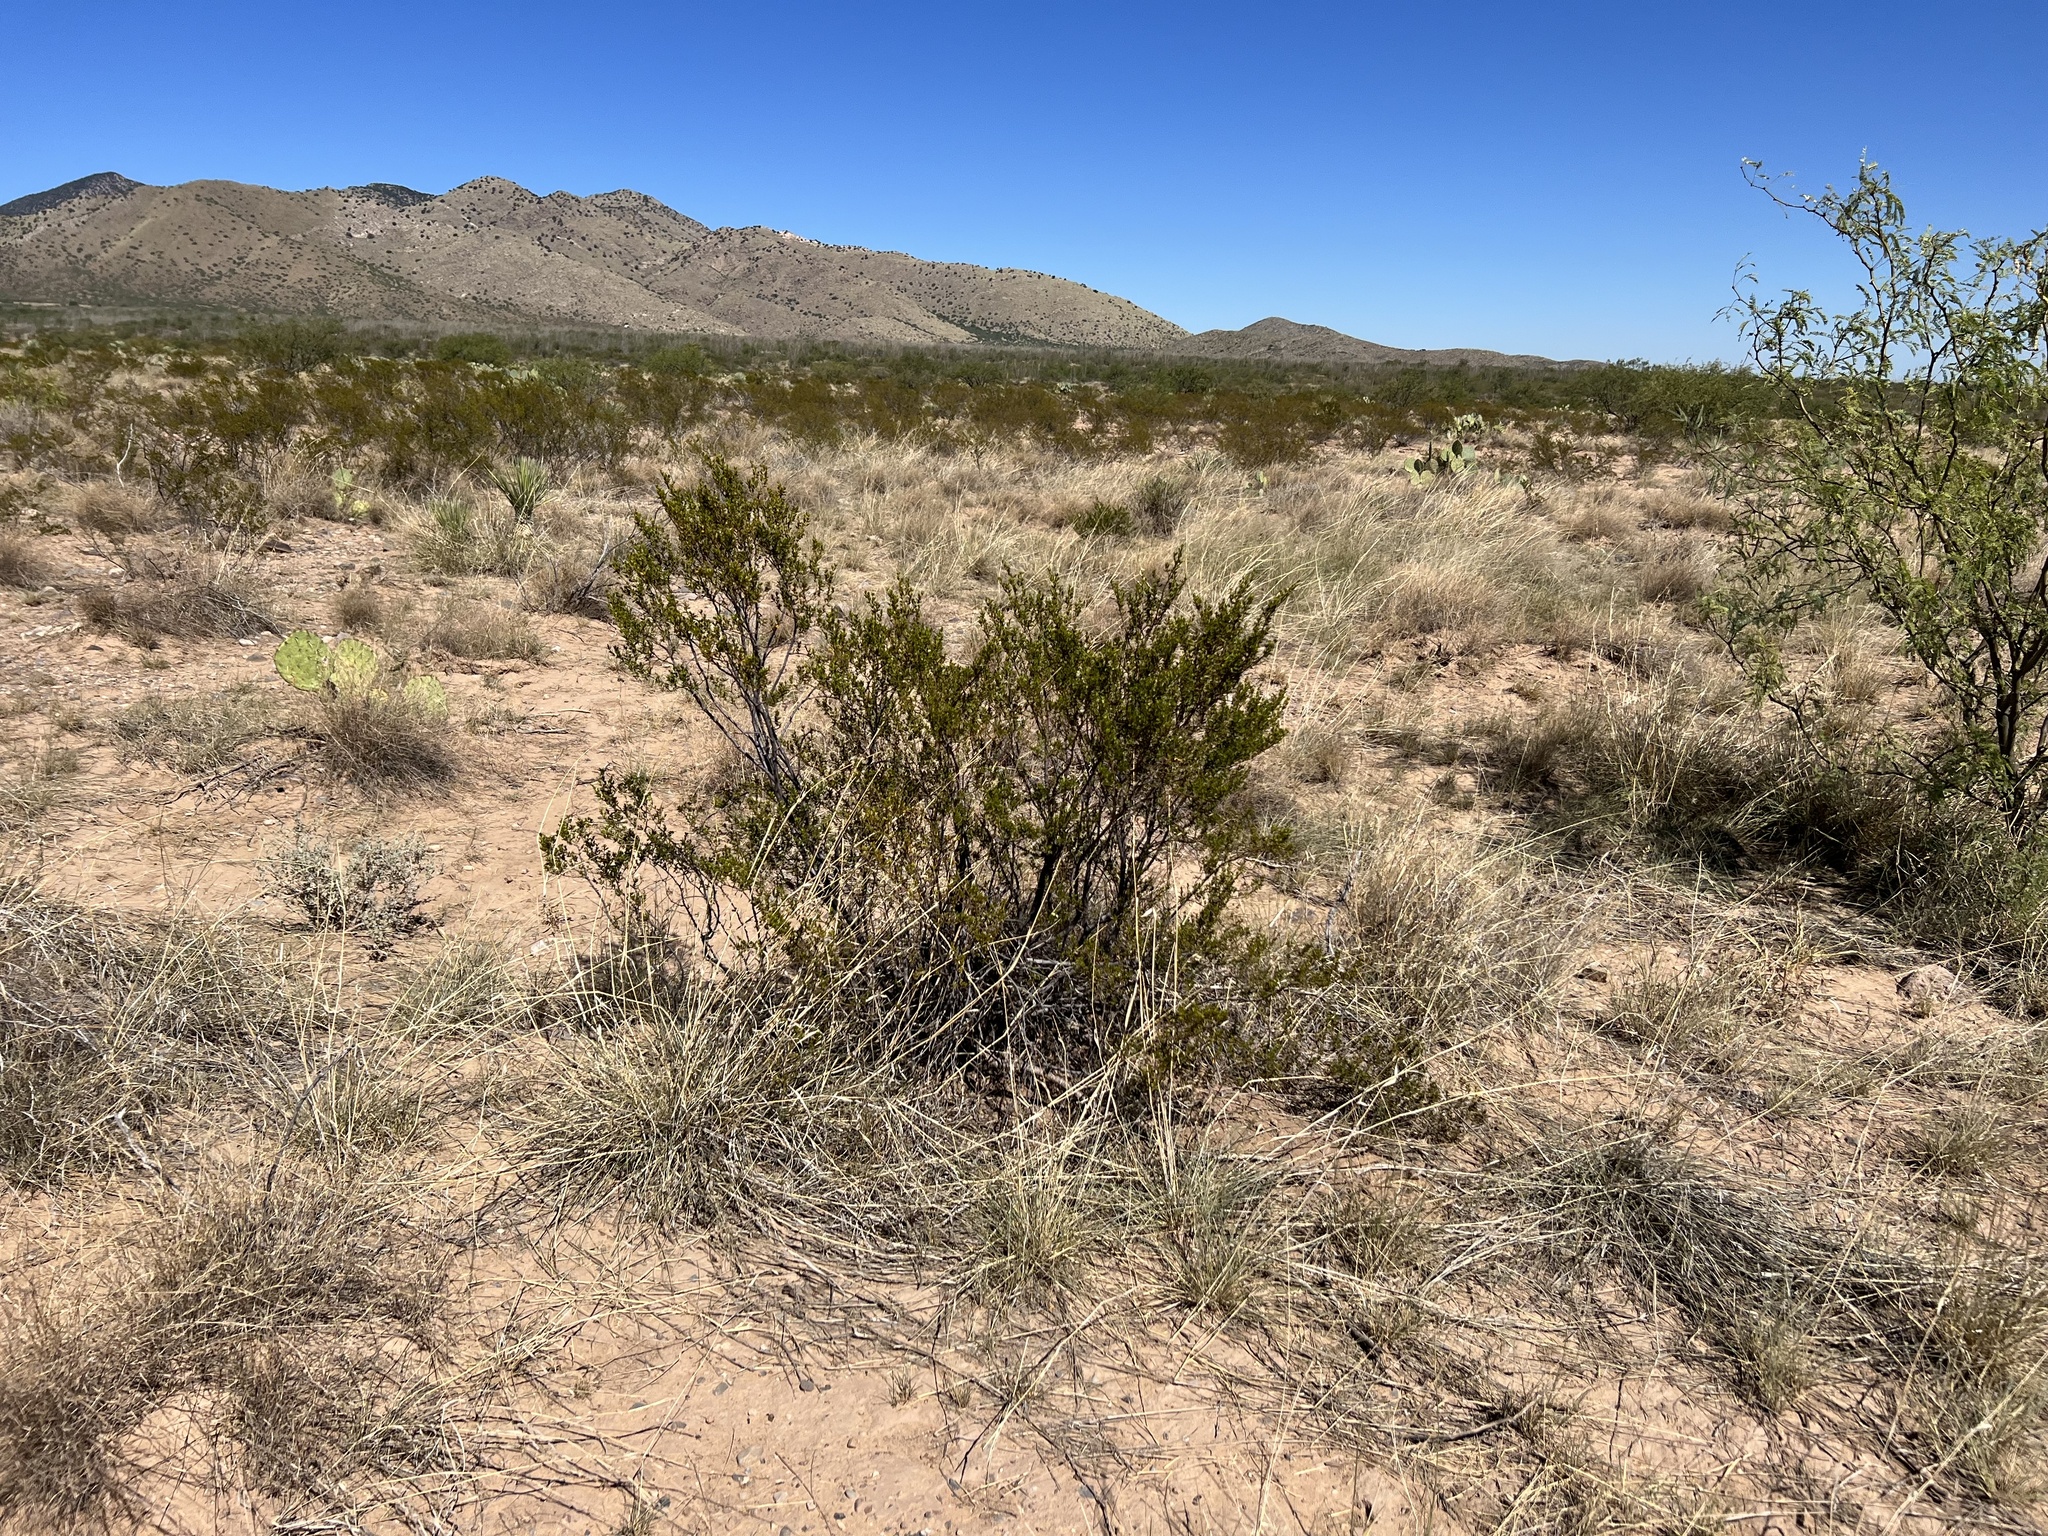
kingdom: Plantae
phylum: Tracheophyta
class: Magnoliopsida
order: Zygophyllales
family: Zygophyllaceae
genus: Larrea
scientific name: Larrea tridentata
